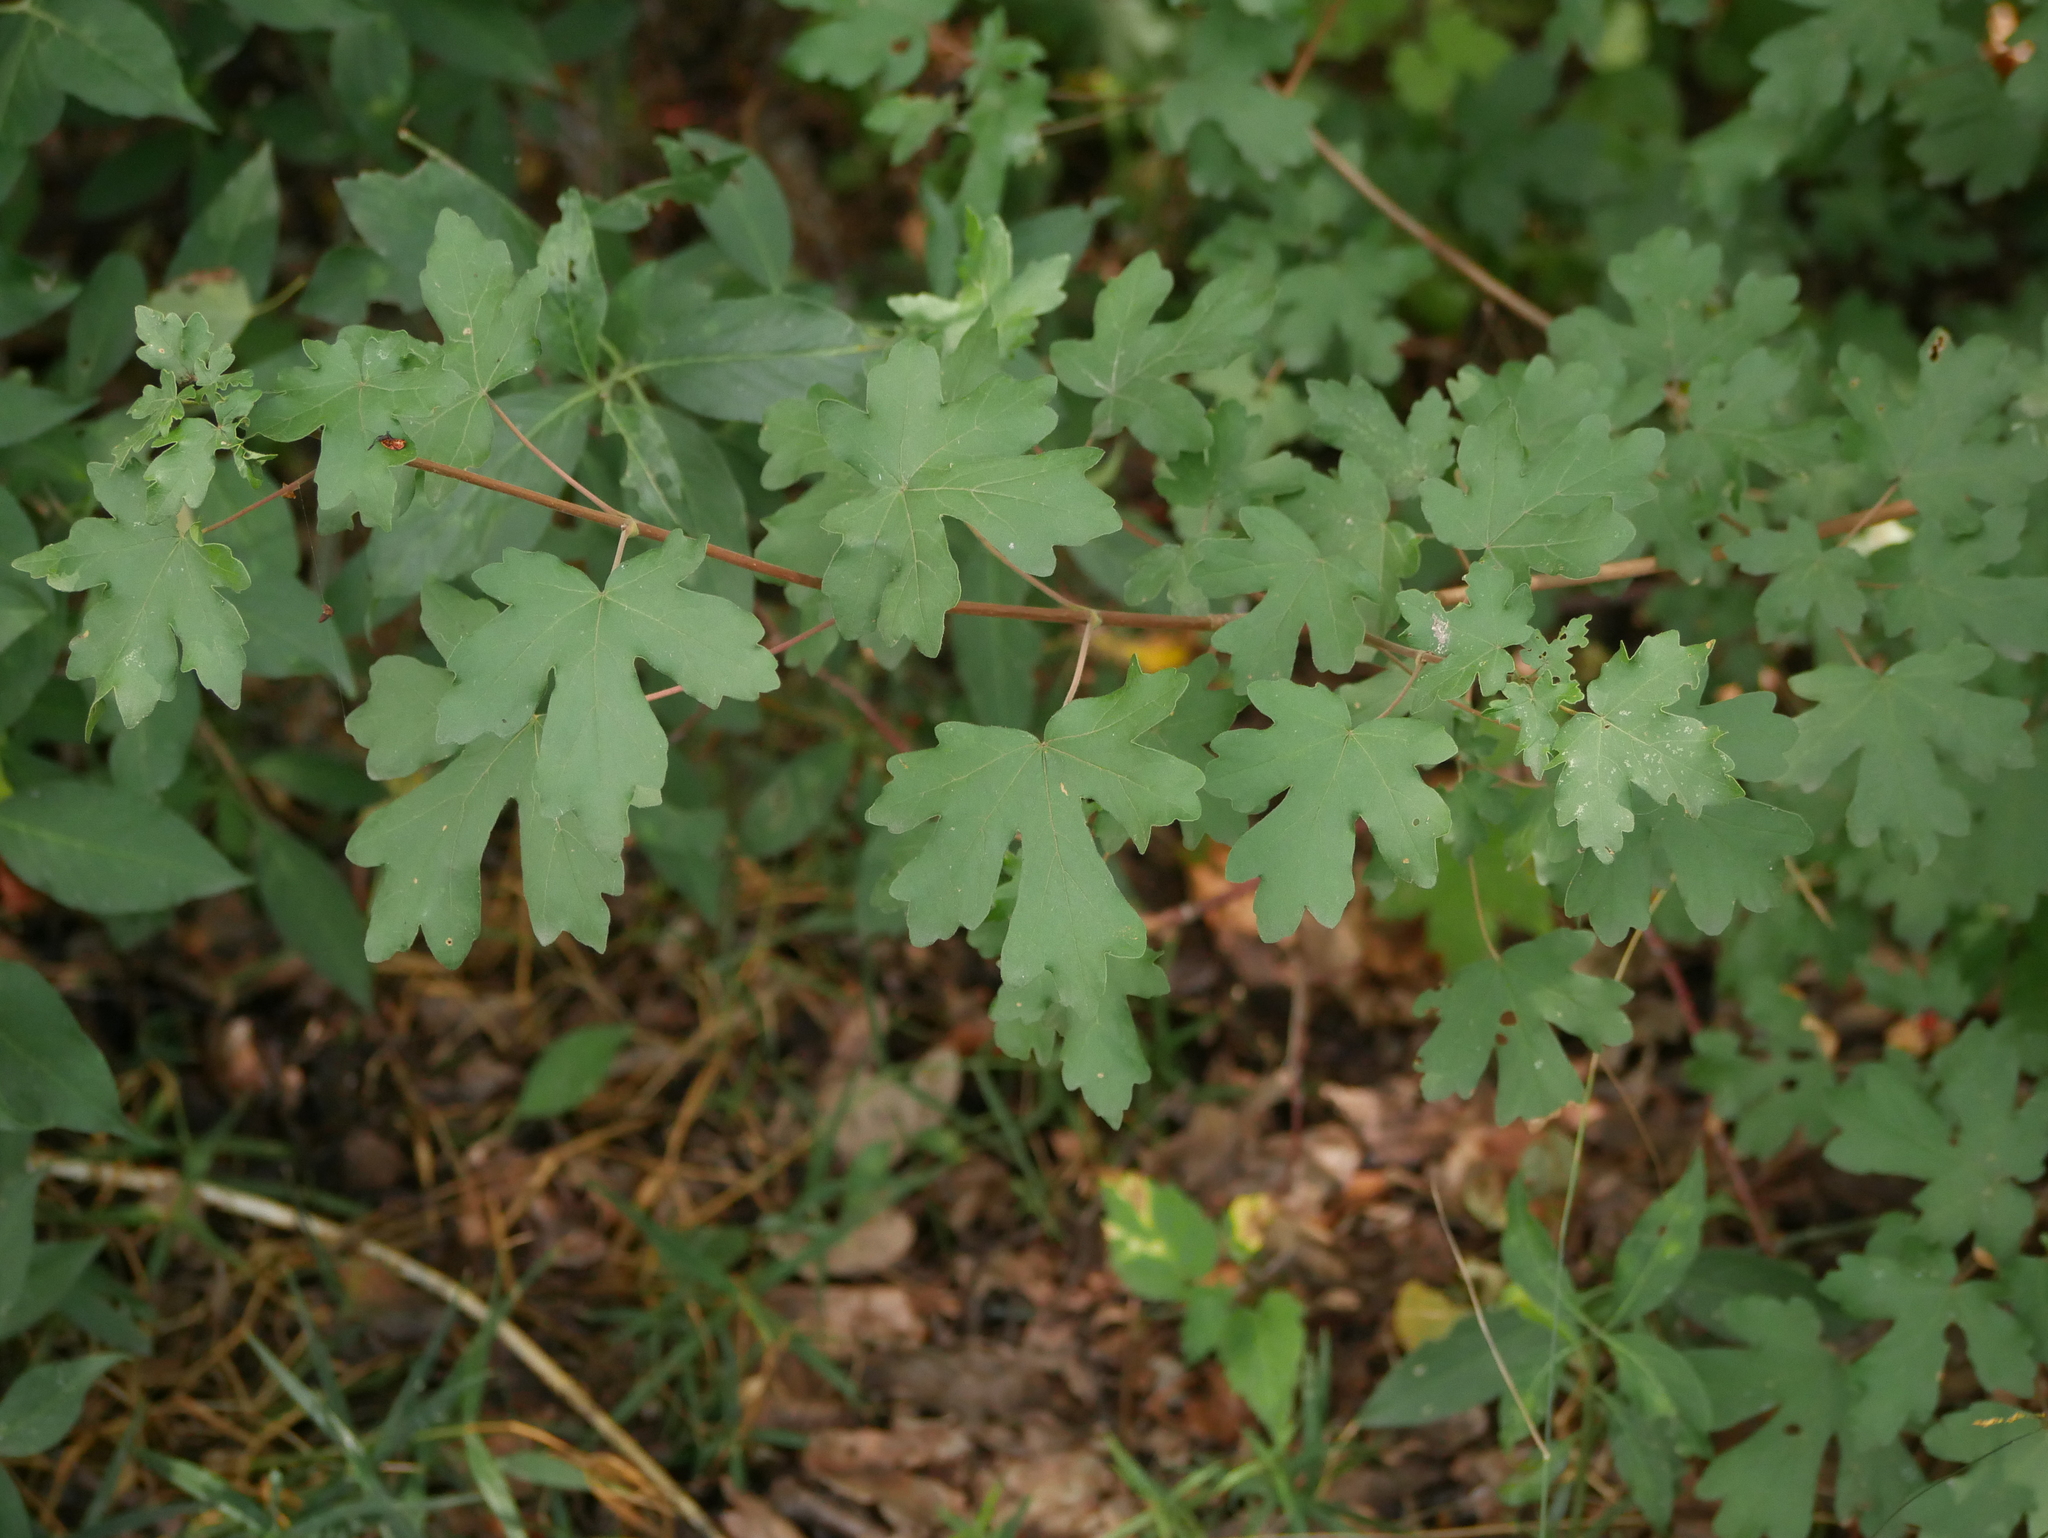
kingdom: Plantae
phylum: Tracheophyta
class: Magnoliopsida
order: Sapindales
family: Sapindaceae
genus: Acer
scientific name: Acer campestre
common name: Field maple
